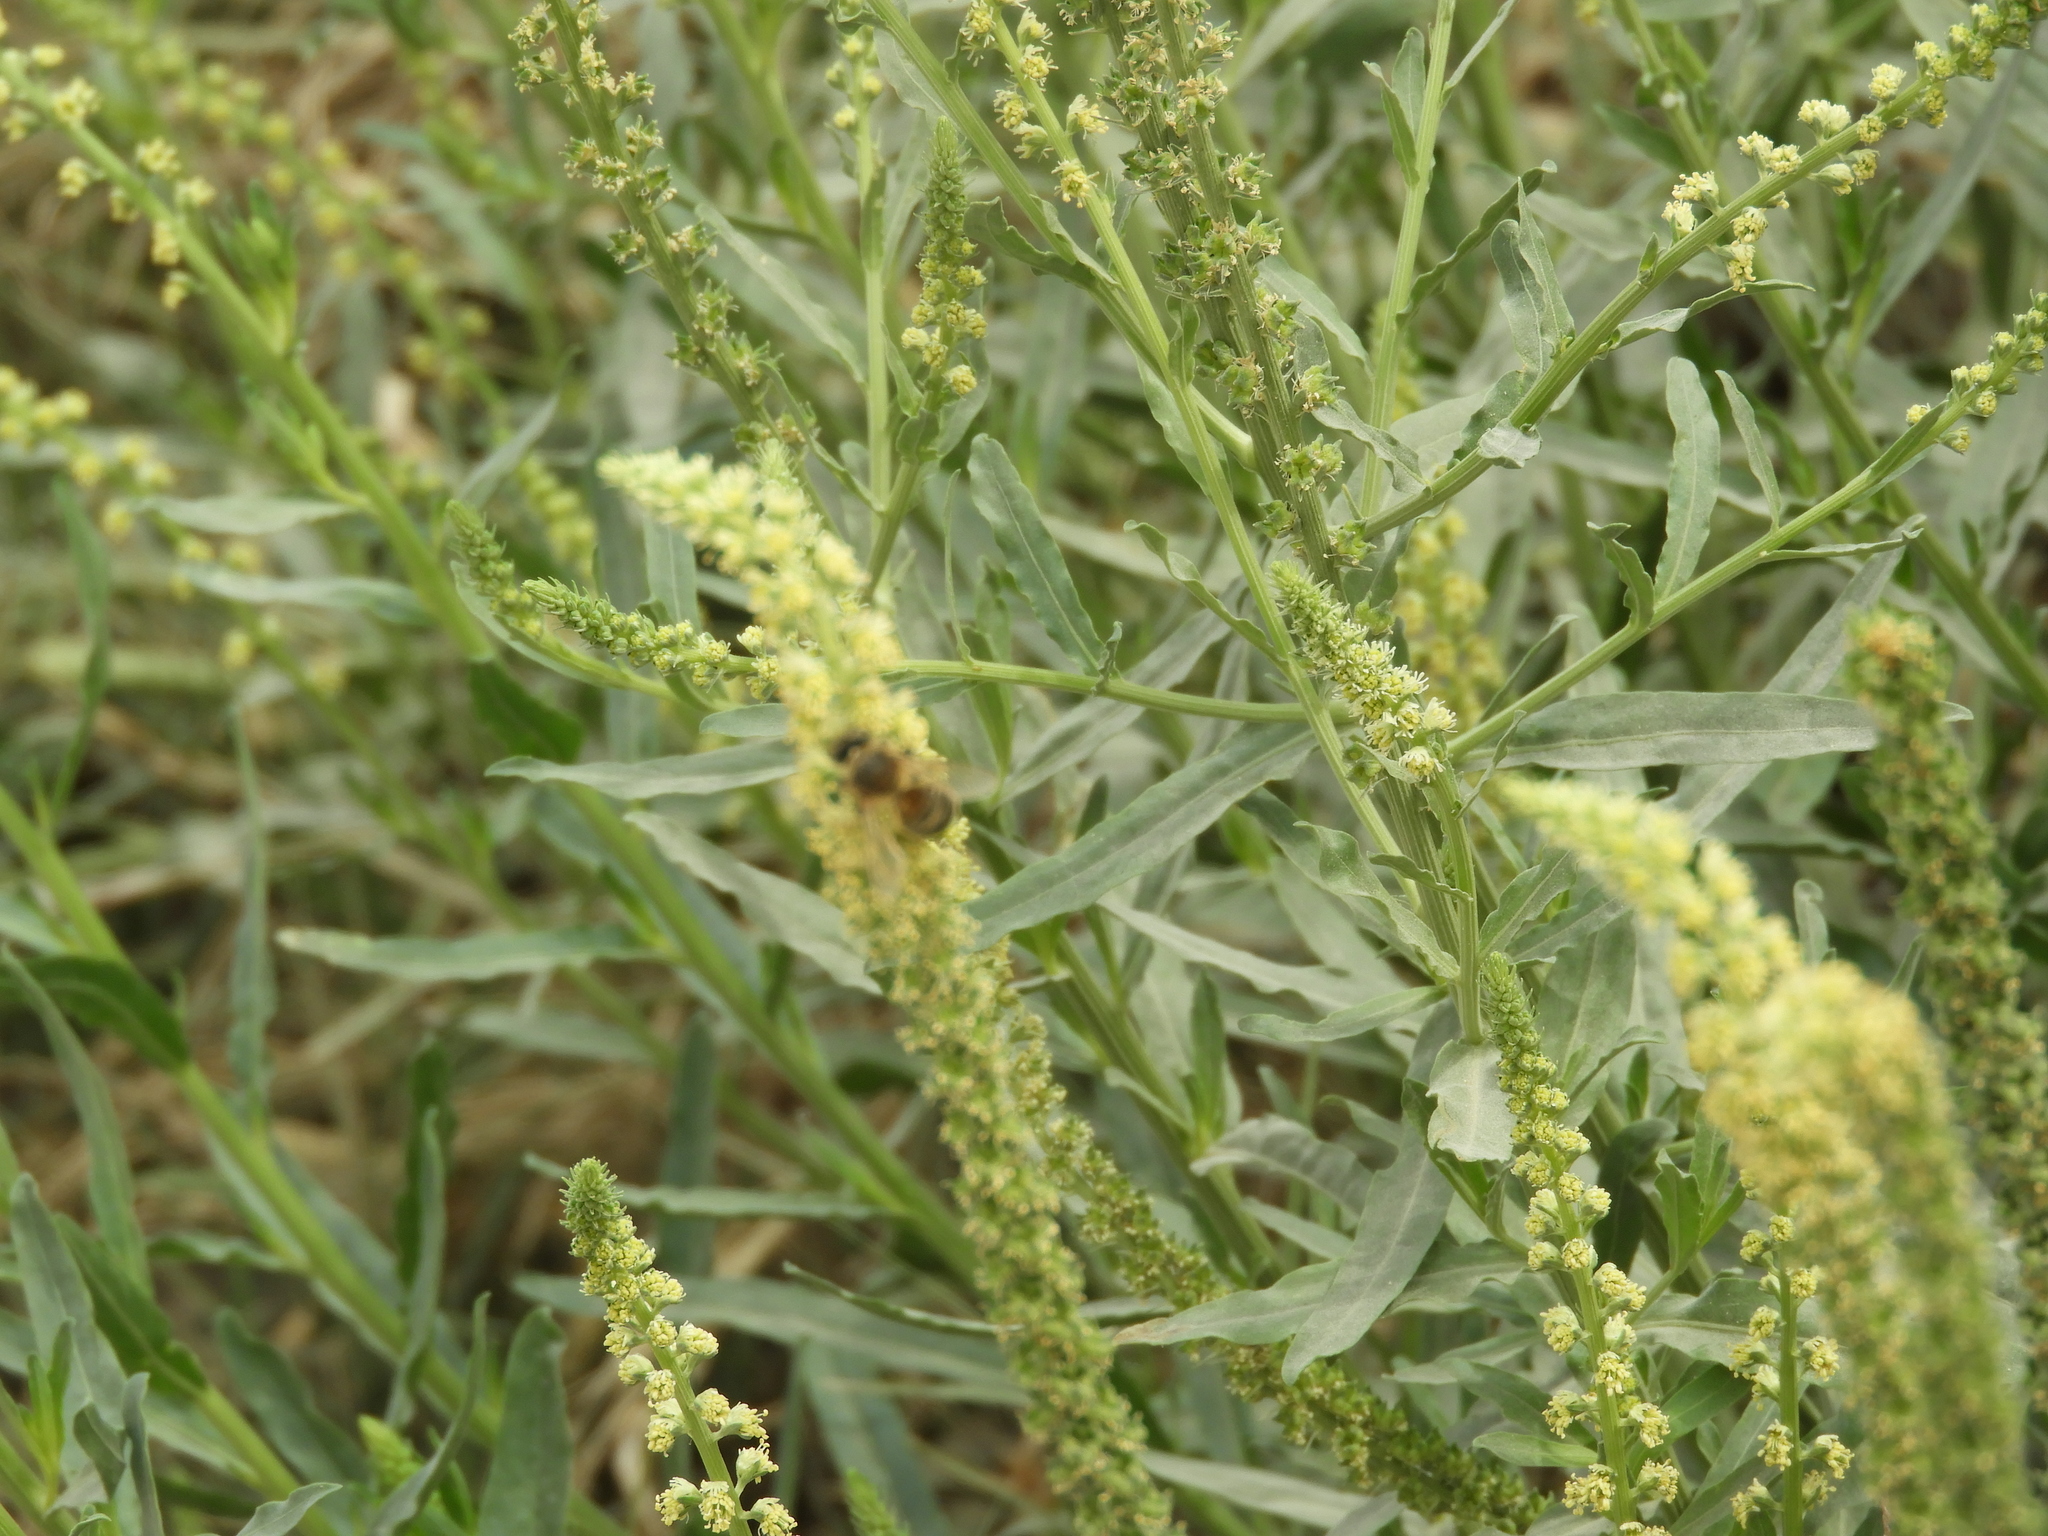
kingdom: Animalia
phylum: Arthropoda
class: Insecta
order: Hymenoptera
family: Apidae
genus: Apis
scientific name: Apis mellifera
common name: Honey bee
